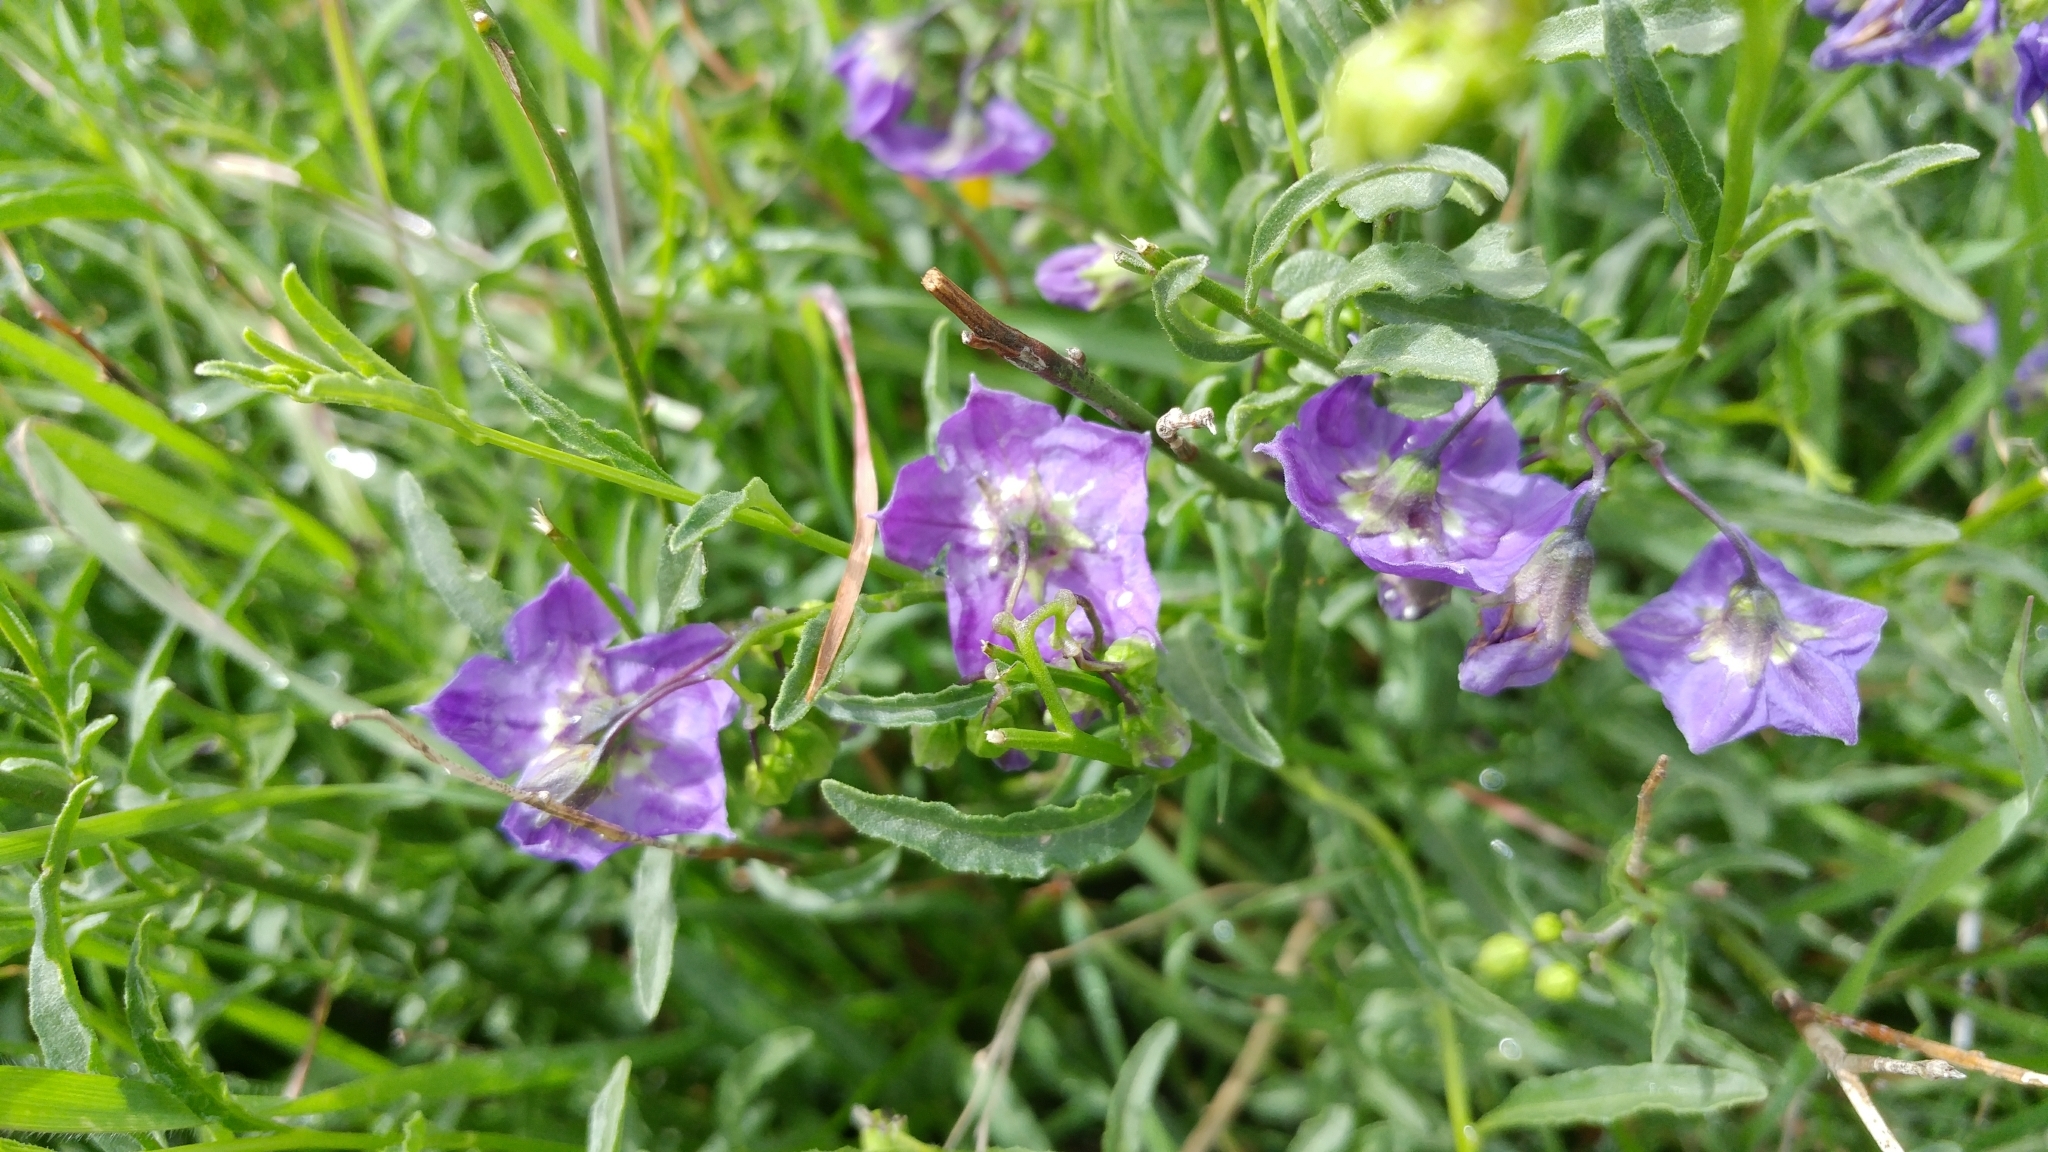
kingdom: Plantae
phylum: Tracheophyta
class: Magnoliopsida
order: Solanales
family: Solanaceae
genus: Solanum
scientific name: Solanum umbelliferum
